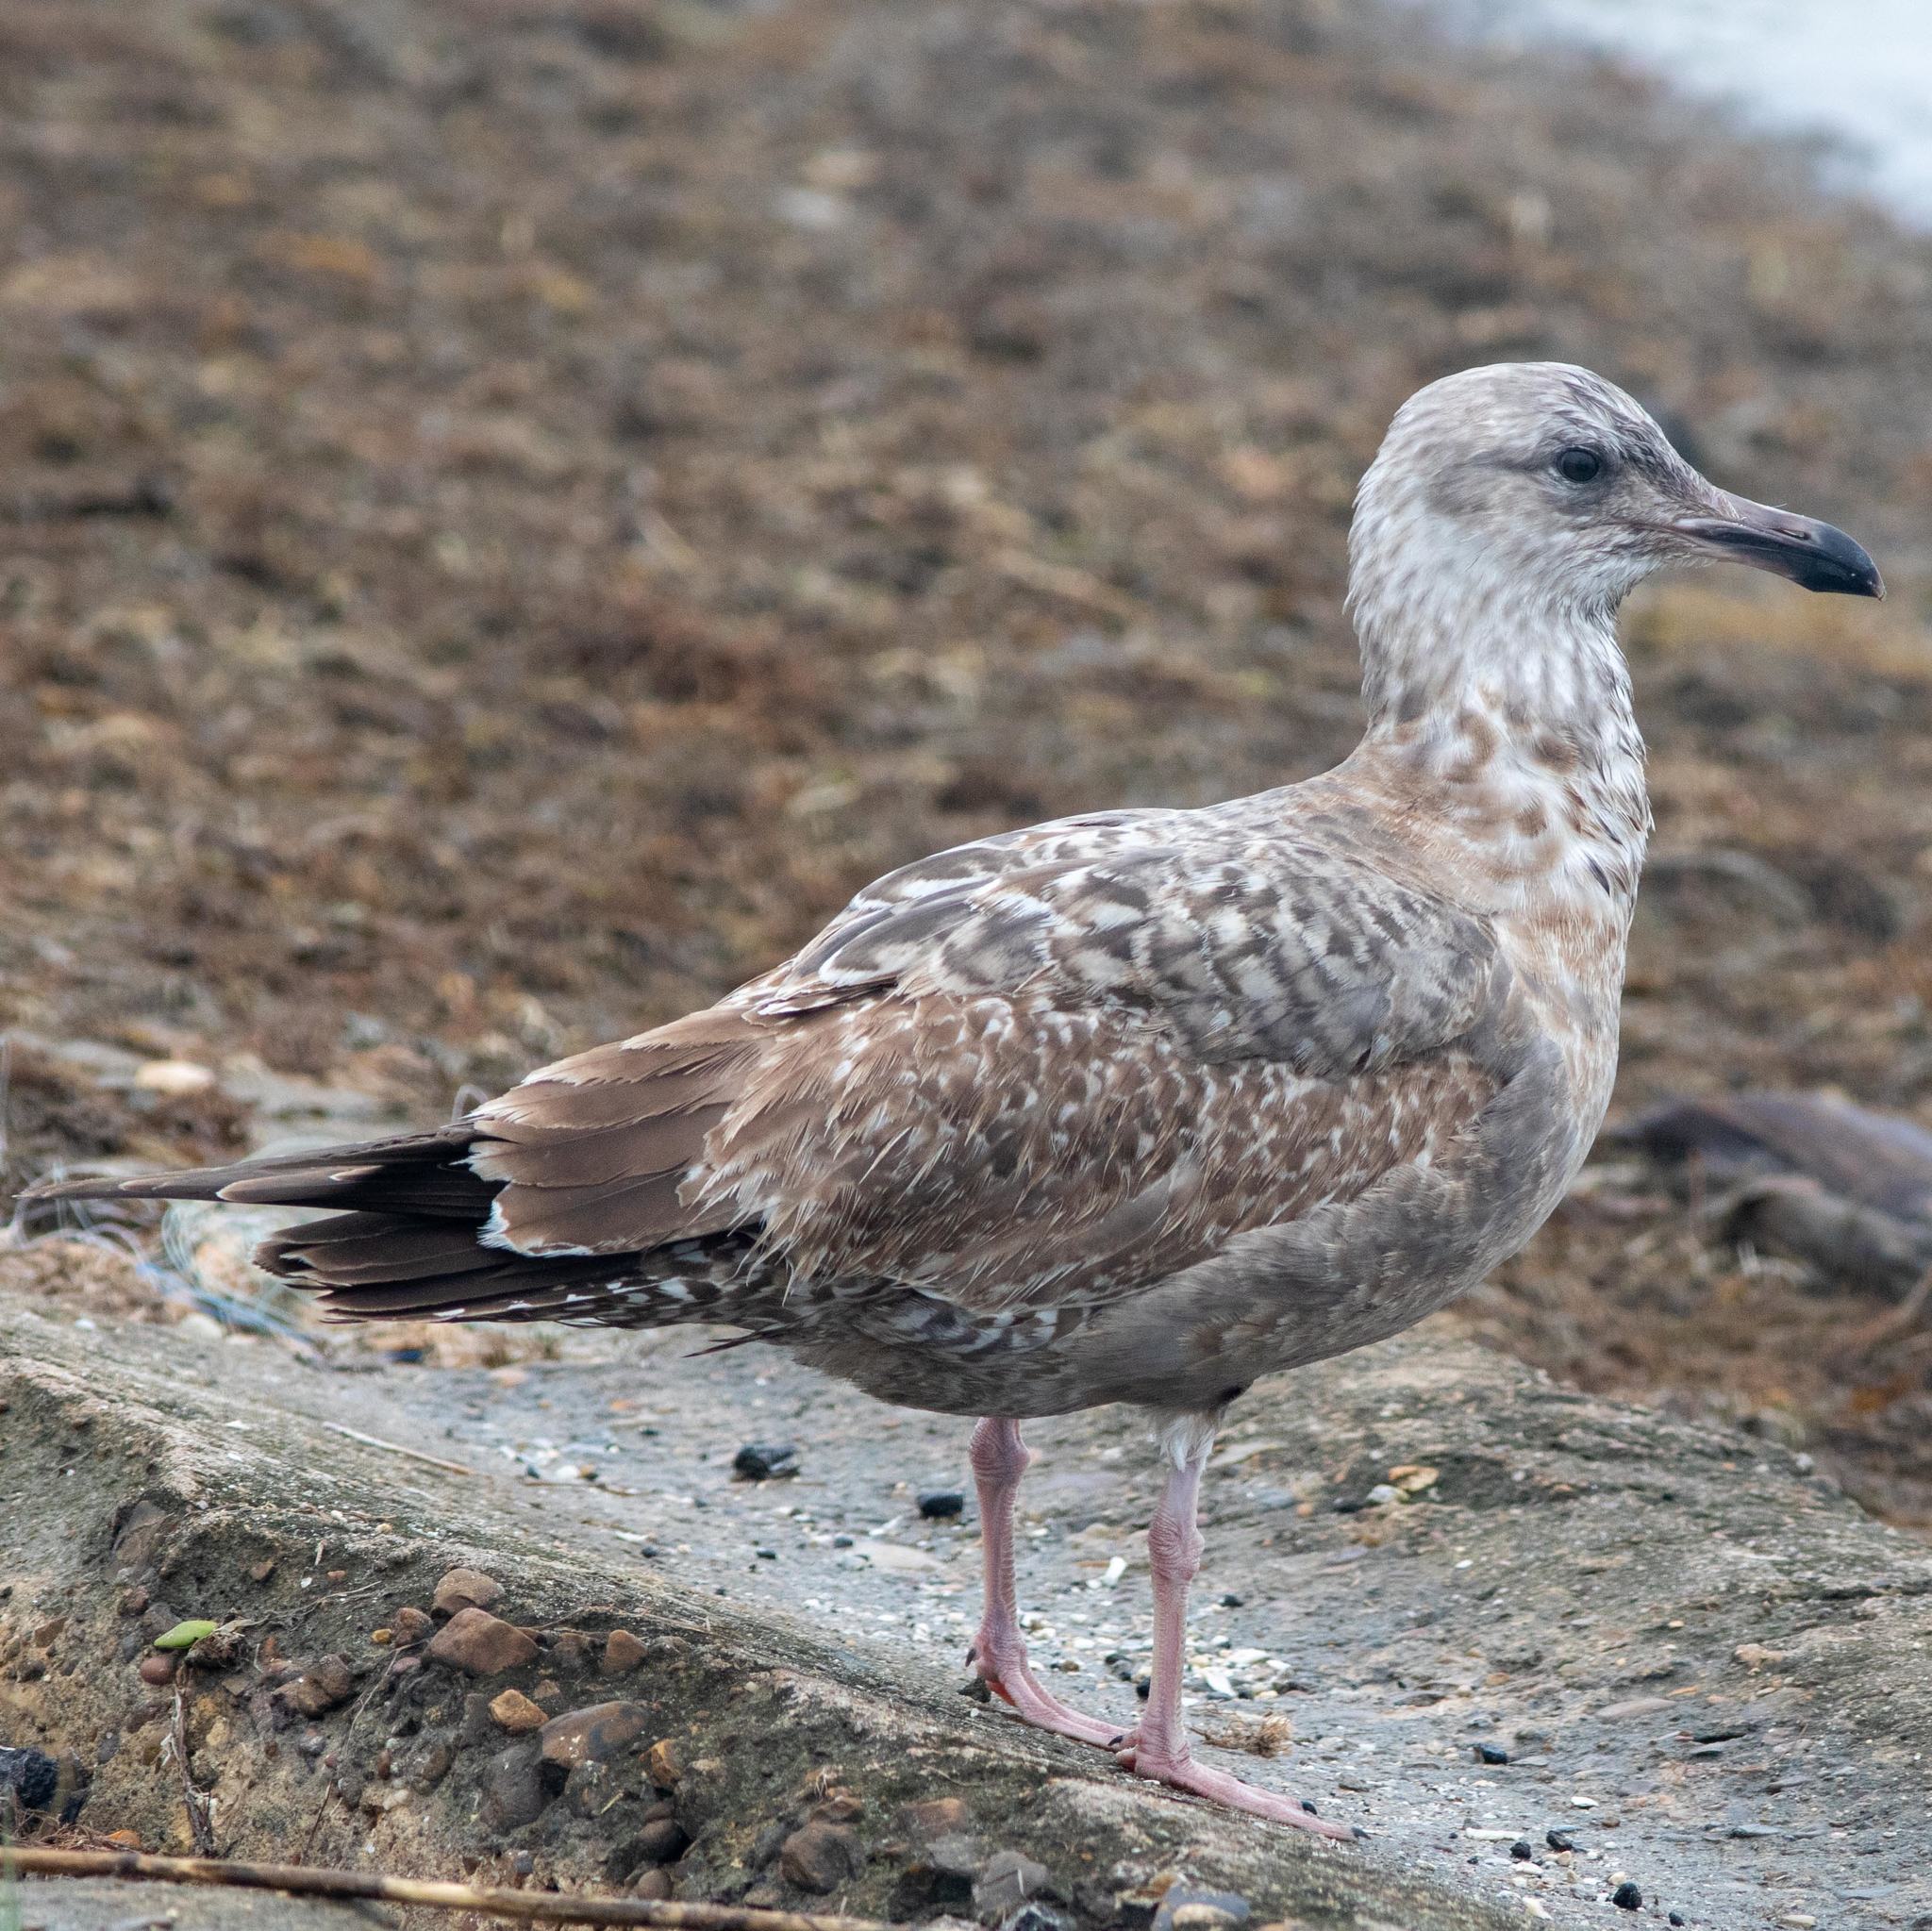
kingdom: Animalia
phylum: Chordata
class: Aves
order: Charadriiformes
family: Laridae
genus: Larus
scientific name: Larus argentatus
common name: Herring gull
